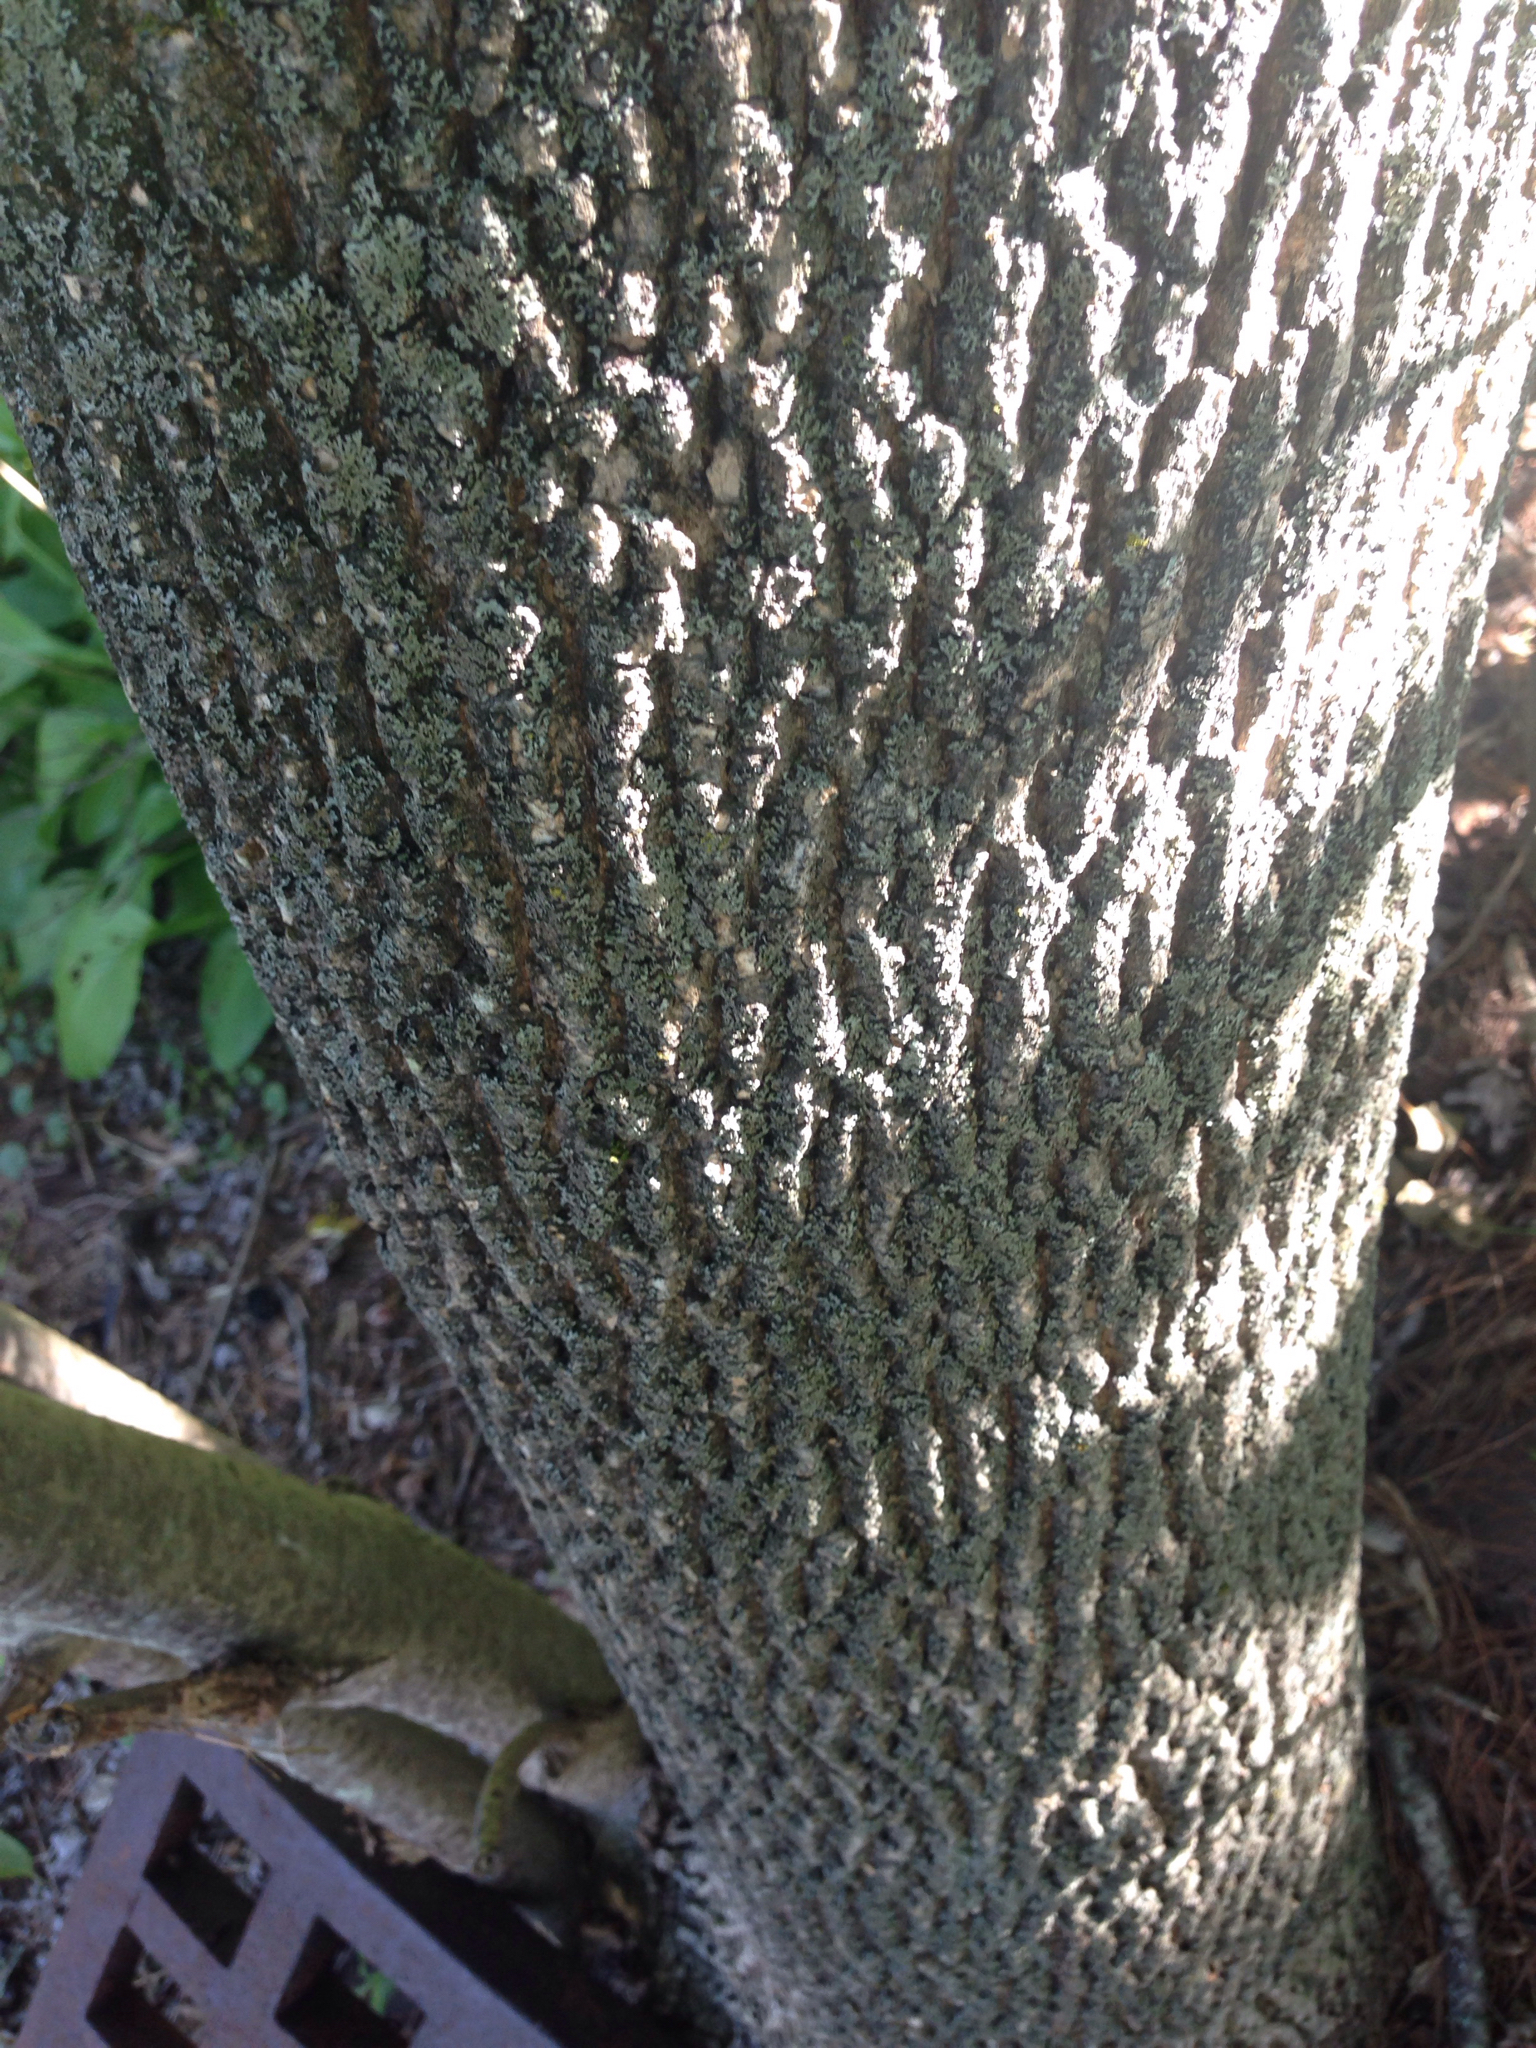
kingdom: Plantae
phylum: Tracheophyta
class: Magnoliopsida
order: Lamiales
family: Oleaceae
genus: Fraxinus
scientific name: Fraxinus americana
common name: White ash
